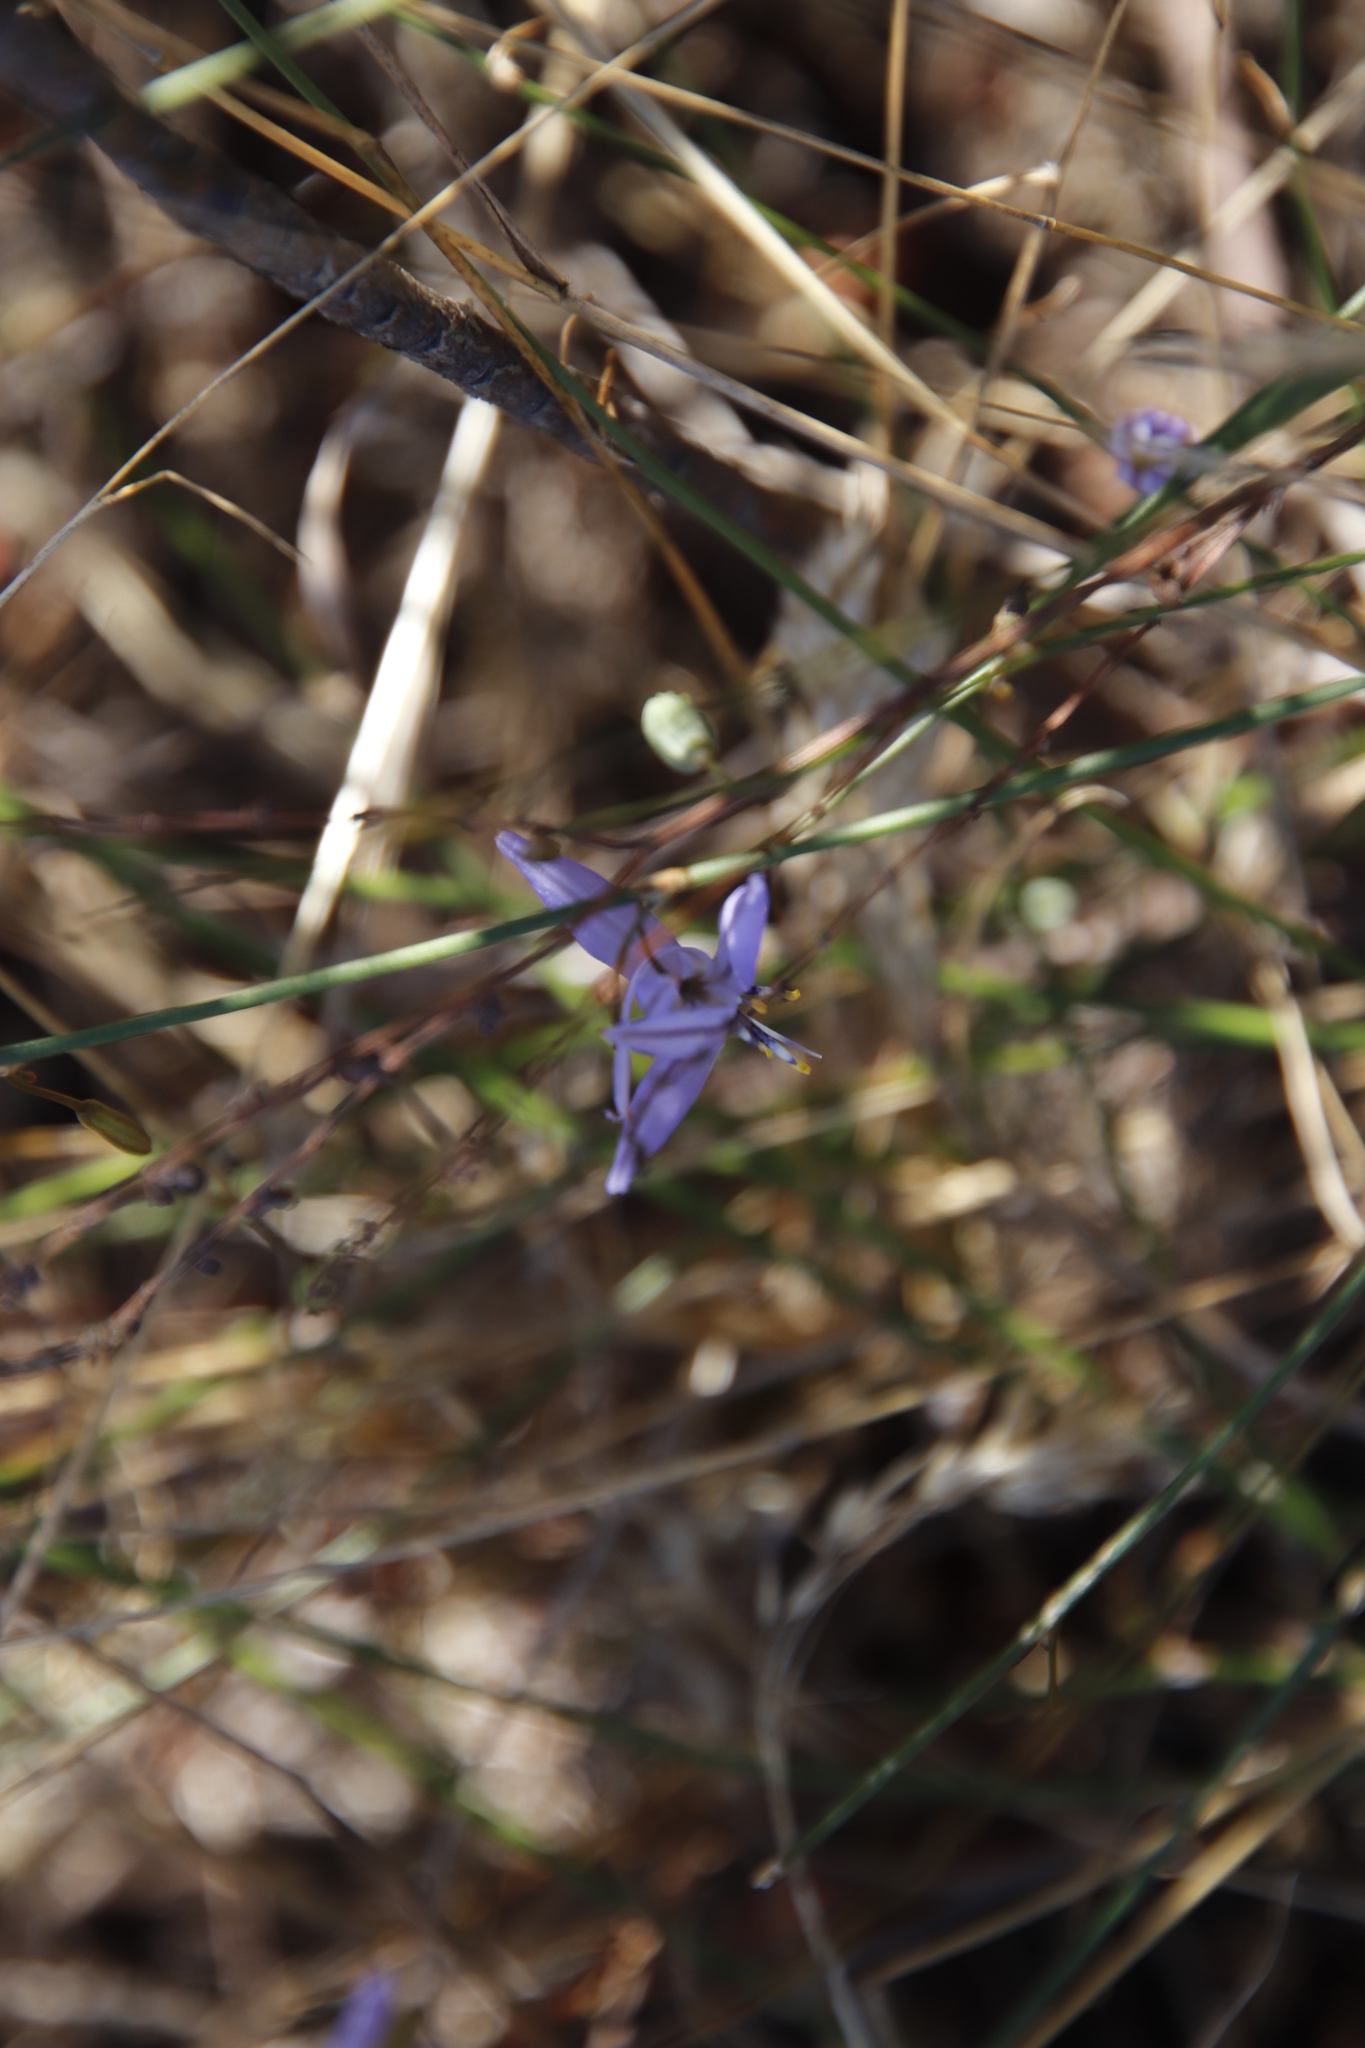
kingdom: Plantae
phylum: Tracheophyta
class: Liliopsida
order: Asparagales
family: Asphodelaceae
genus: Caesia
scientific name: Caesia contorta
